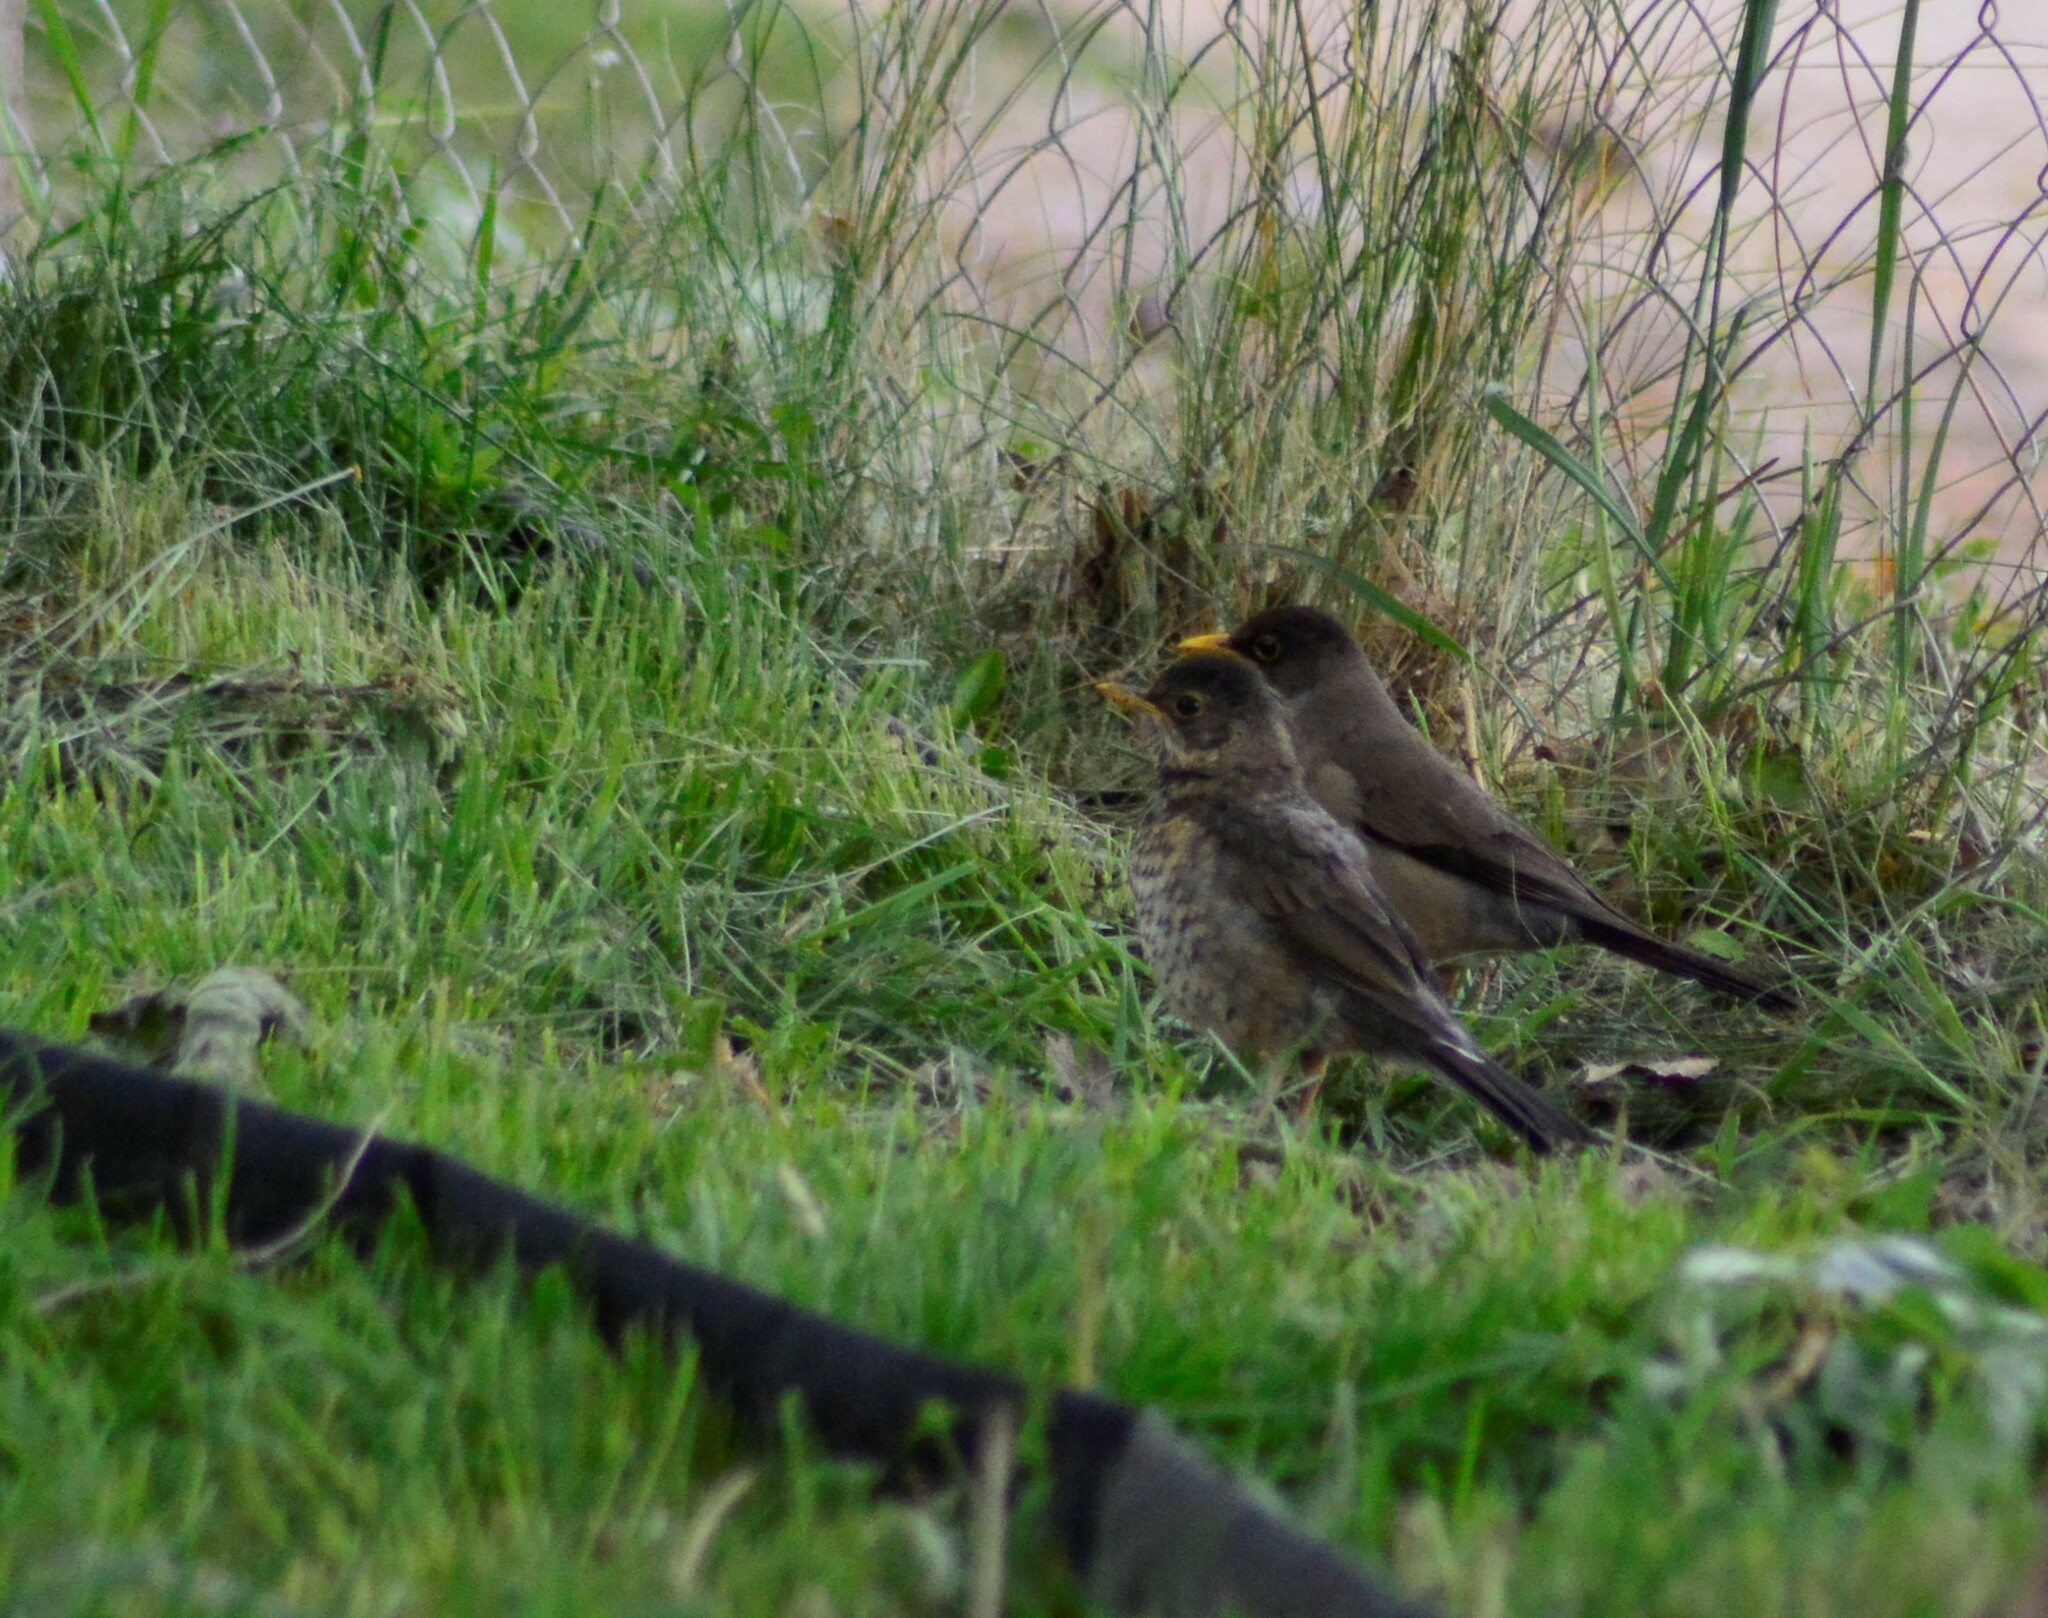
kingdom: Animalia
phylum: Chordata
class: Aves
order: Passeriformes
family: Turdidae
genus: Turdus
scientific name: Turdus falcklandii
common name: Austral thrush
